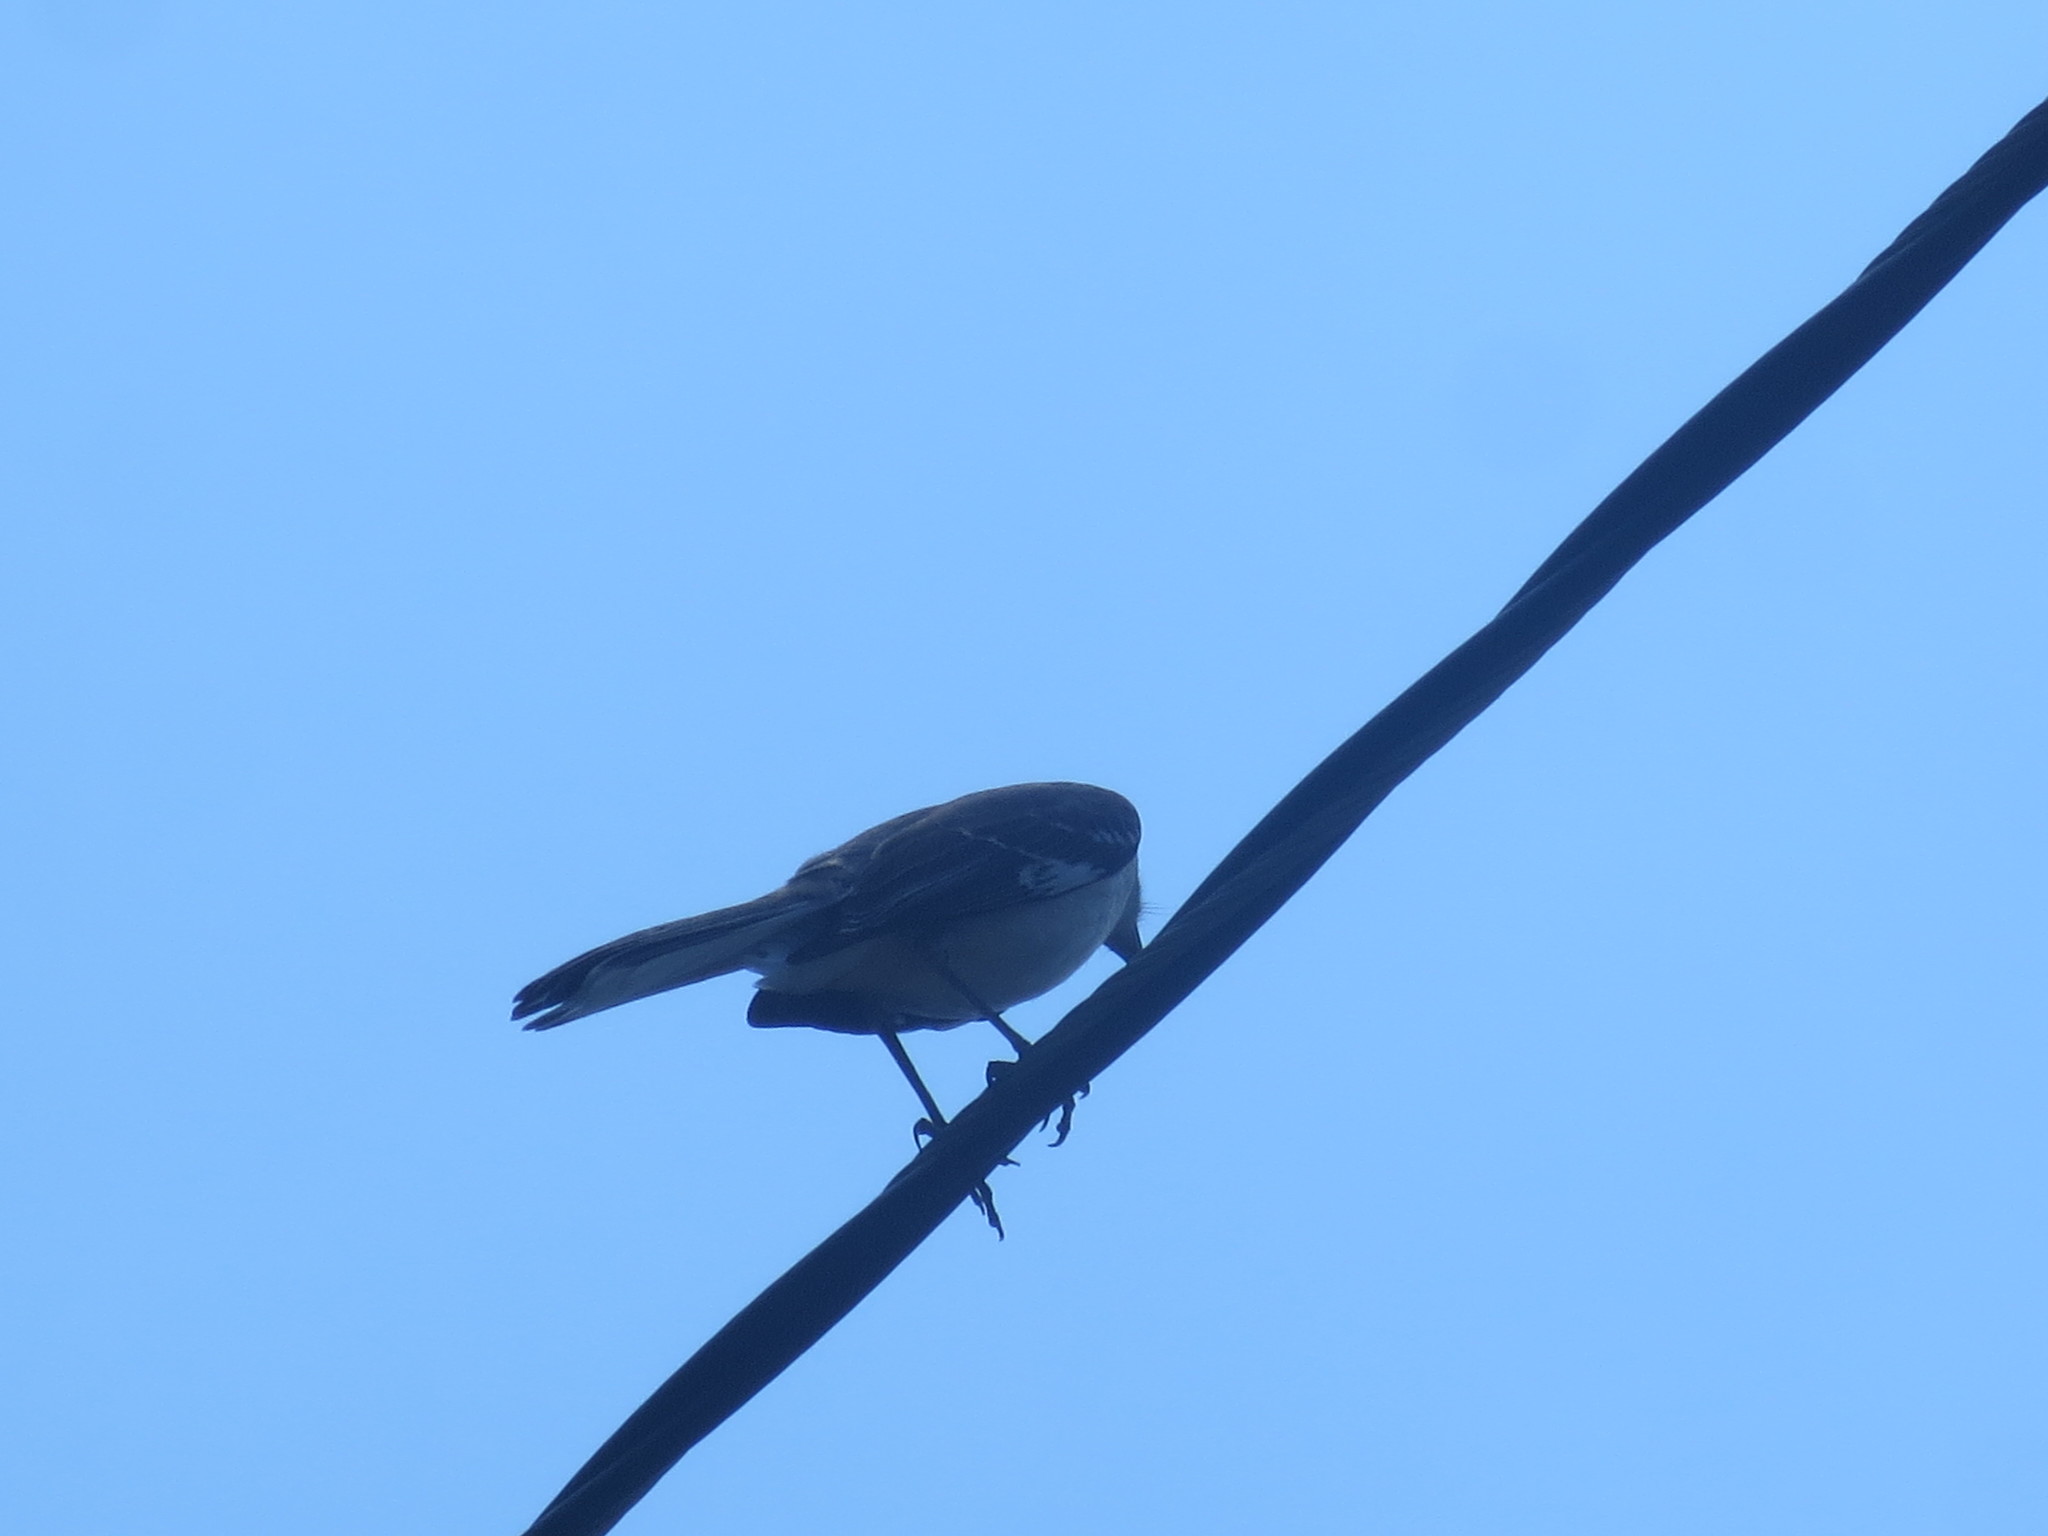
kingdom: Animalia
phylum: Chordata
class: Aves
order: Passeriformes
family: Mimidae
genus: Mimus
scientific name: Mimus polyglottos
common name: Northern mockingbird
